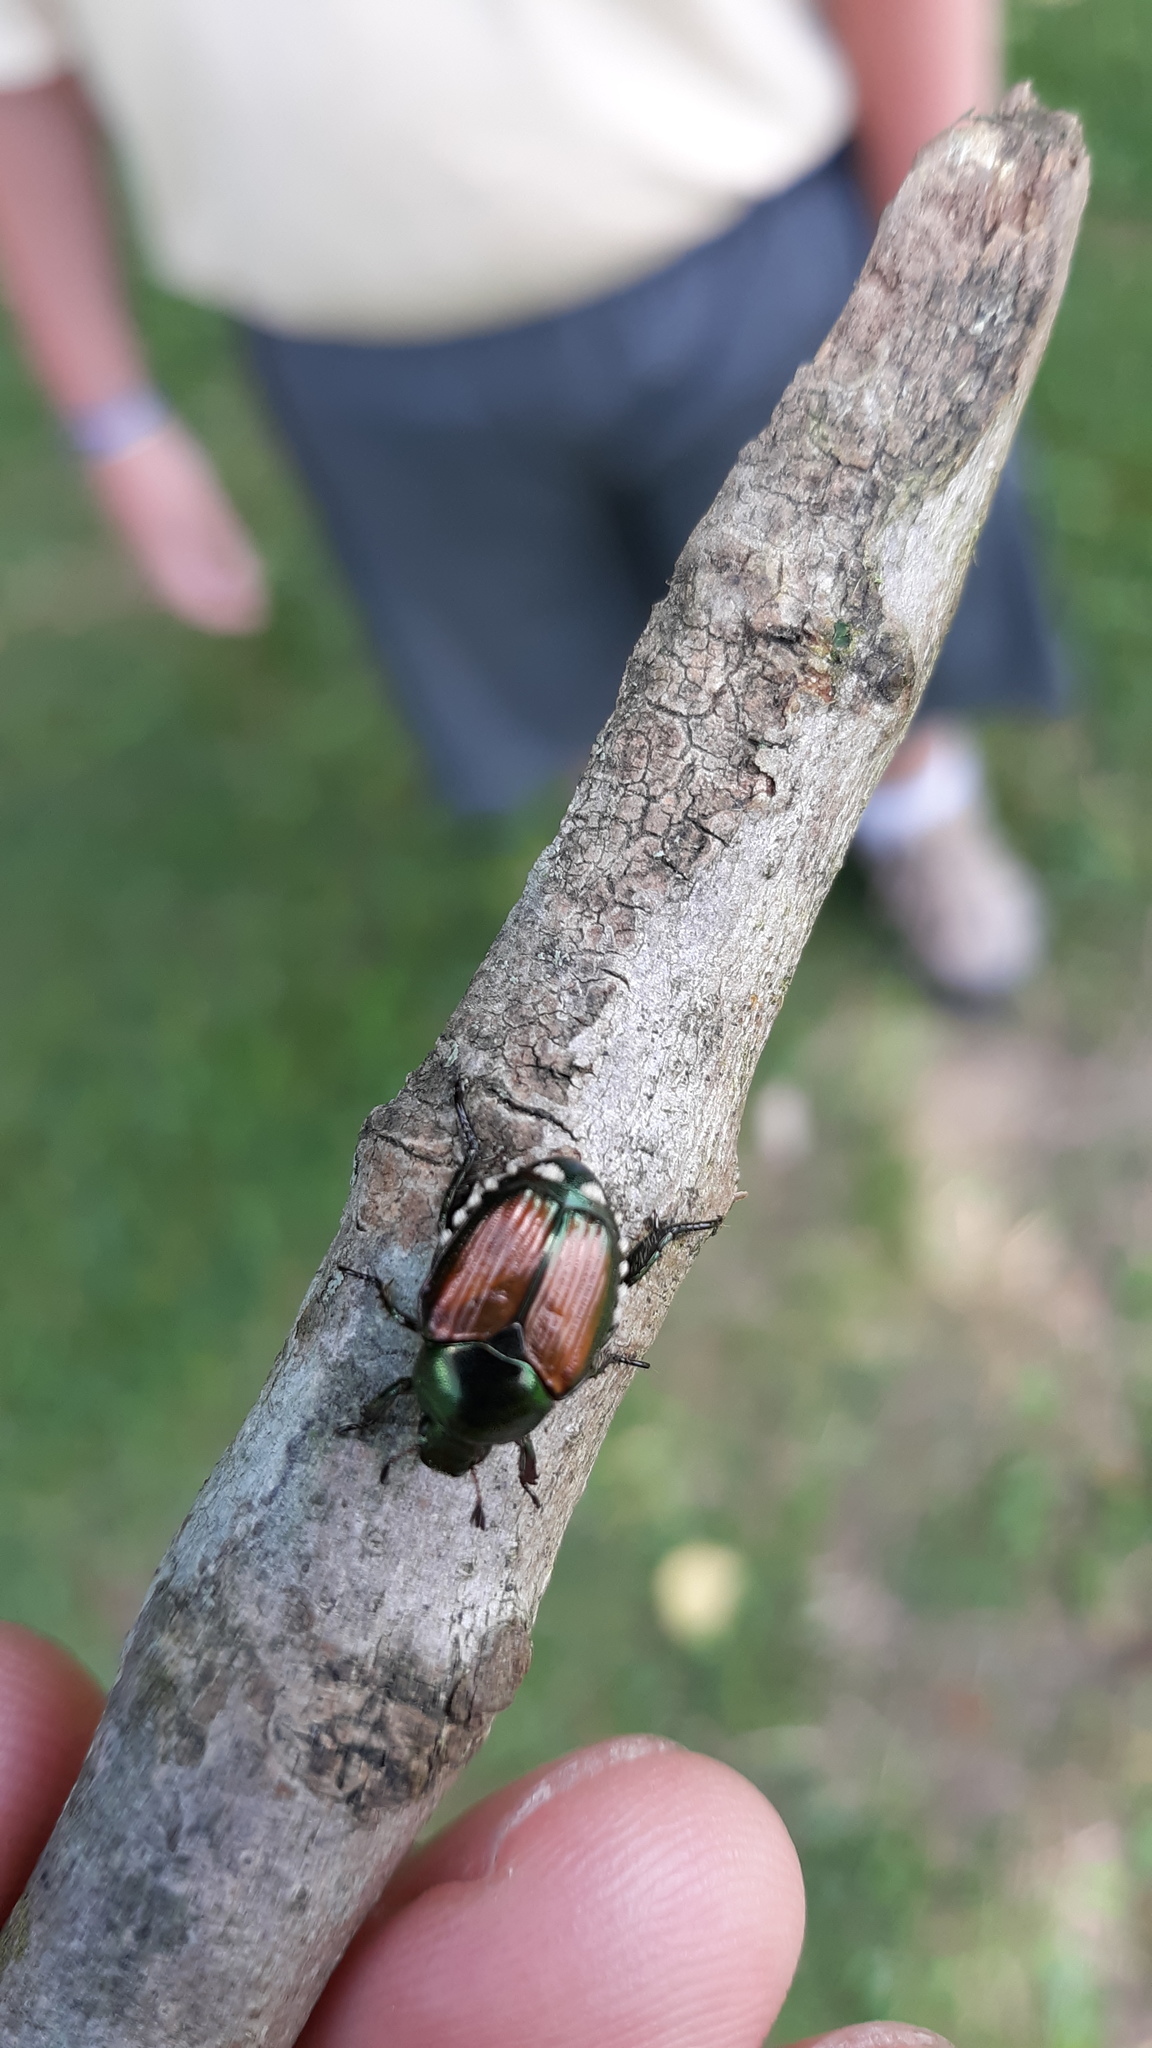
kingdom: Animalia
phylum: Arthropoda
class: Insecta
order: Coleoptera
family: Scarabaeidae
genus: Popillia
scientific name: Popillia japonica
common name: Japanese beetle
